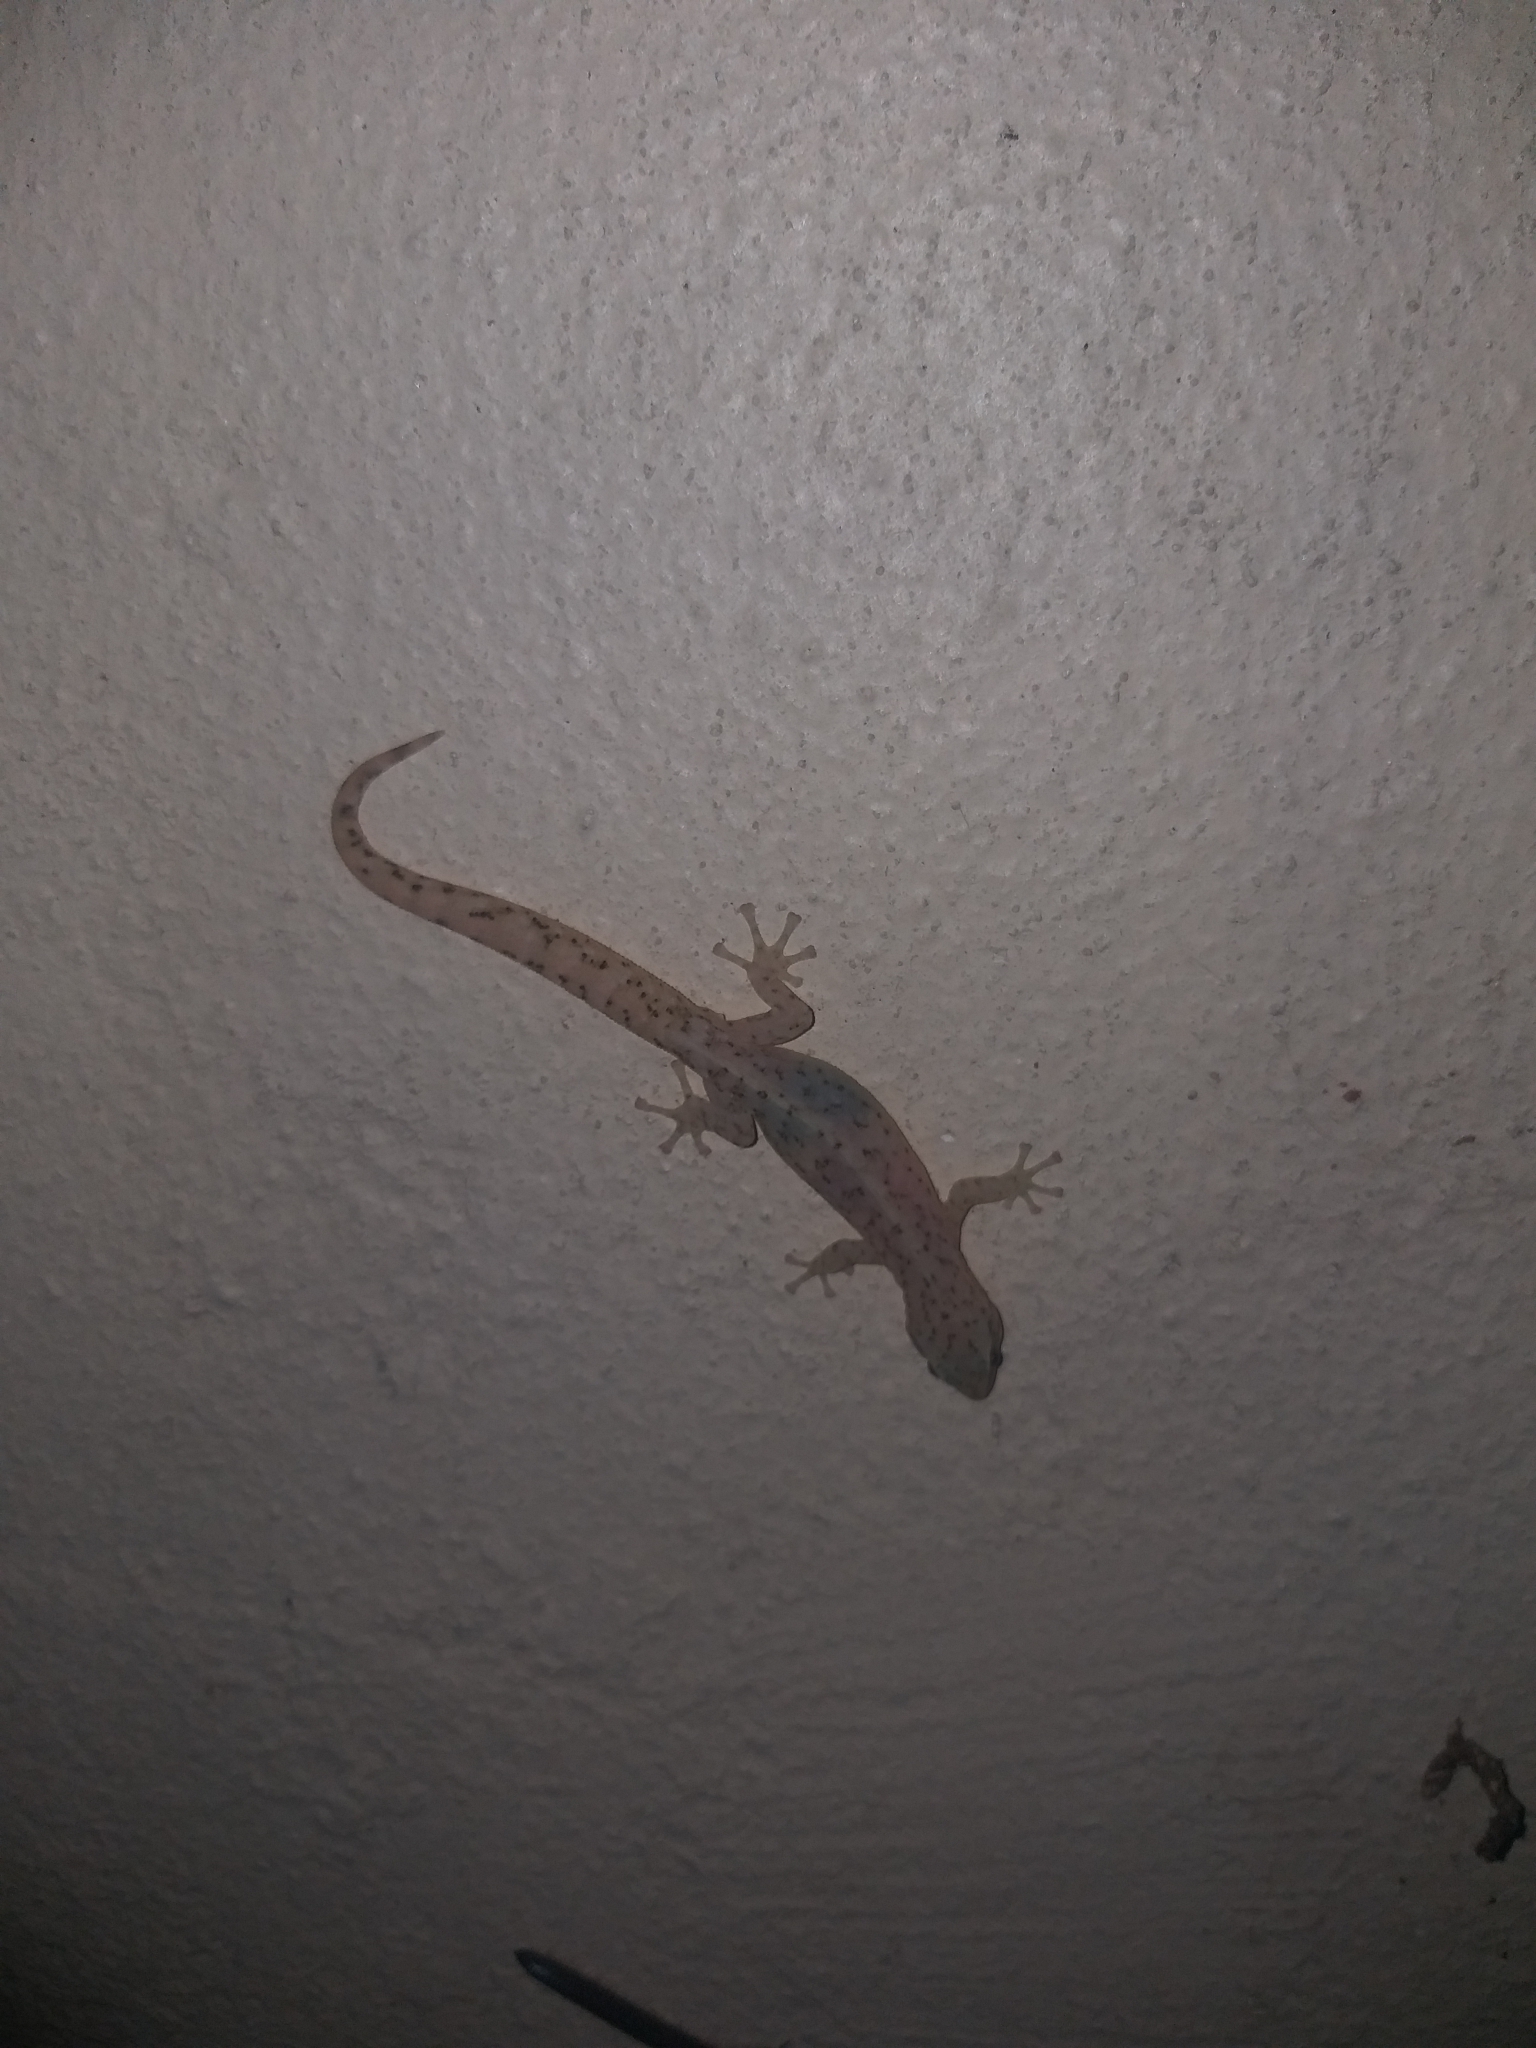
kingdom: Animalia
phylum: Chordata
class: Squamata
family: Gekkonidae
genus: Afrogecko
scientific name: Afrogecko porphyreus
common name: Marbled leaf-toed gecko
